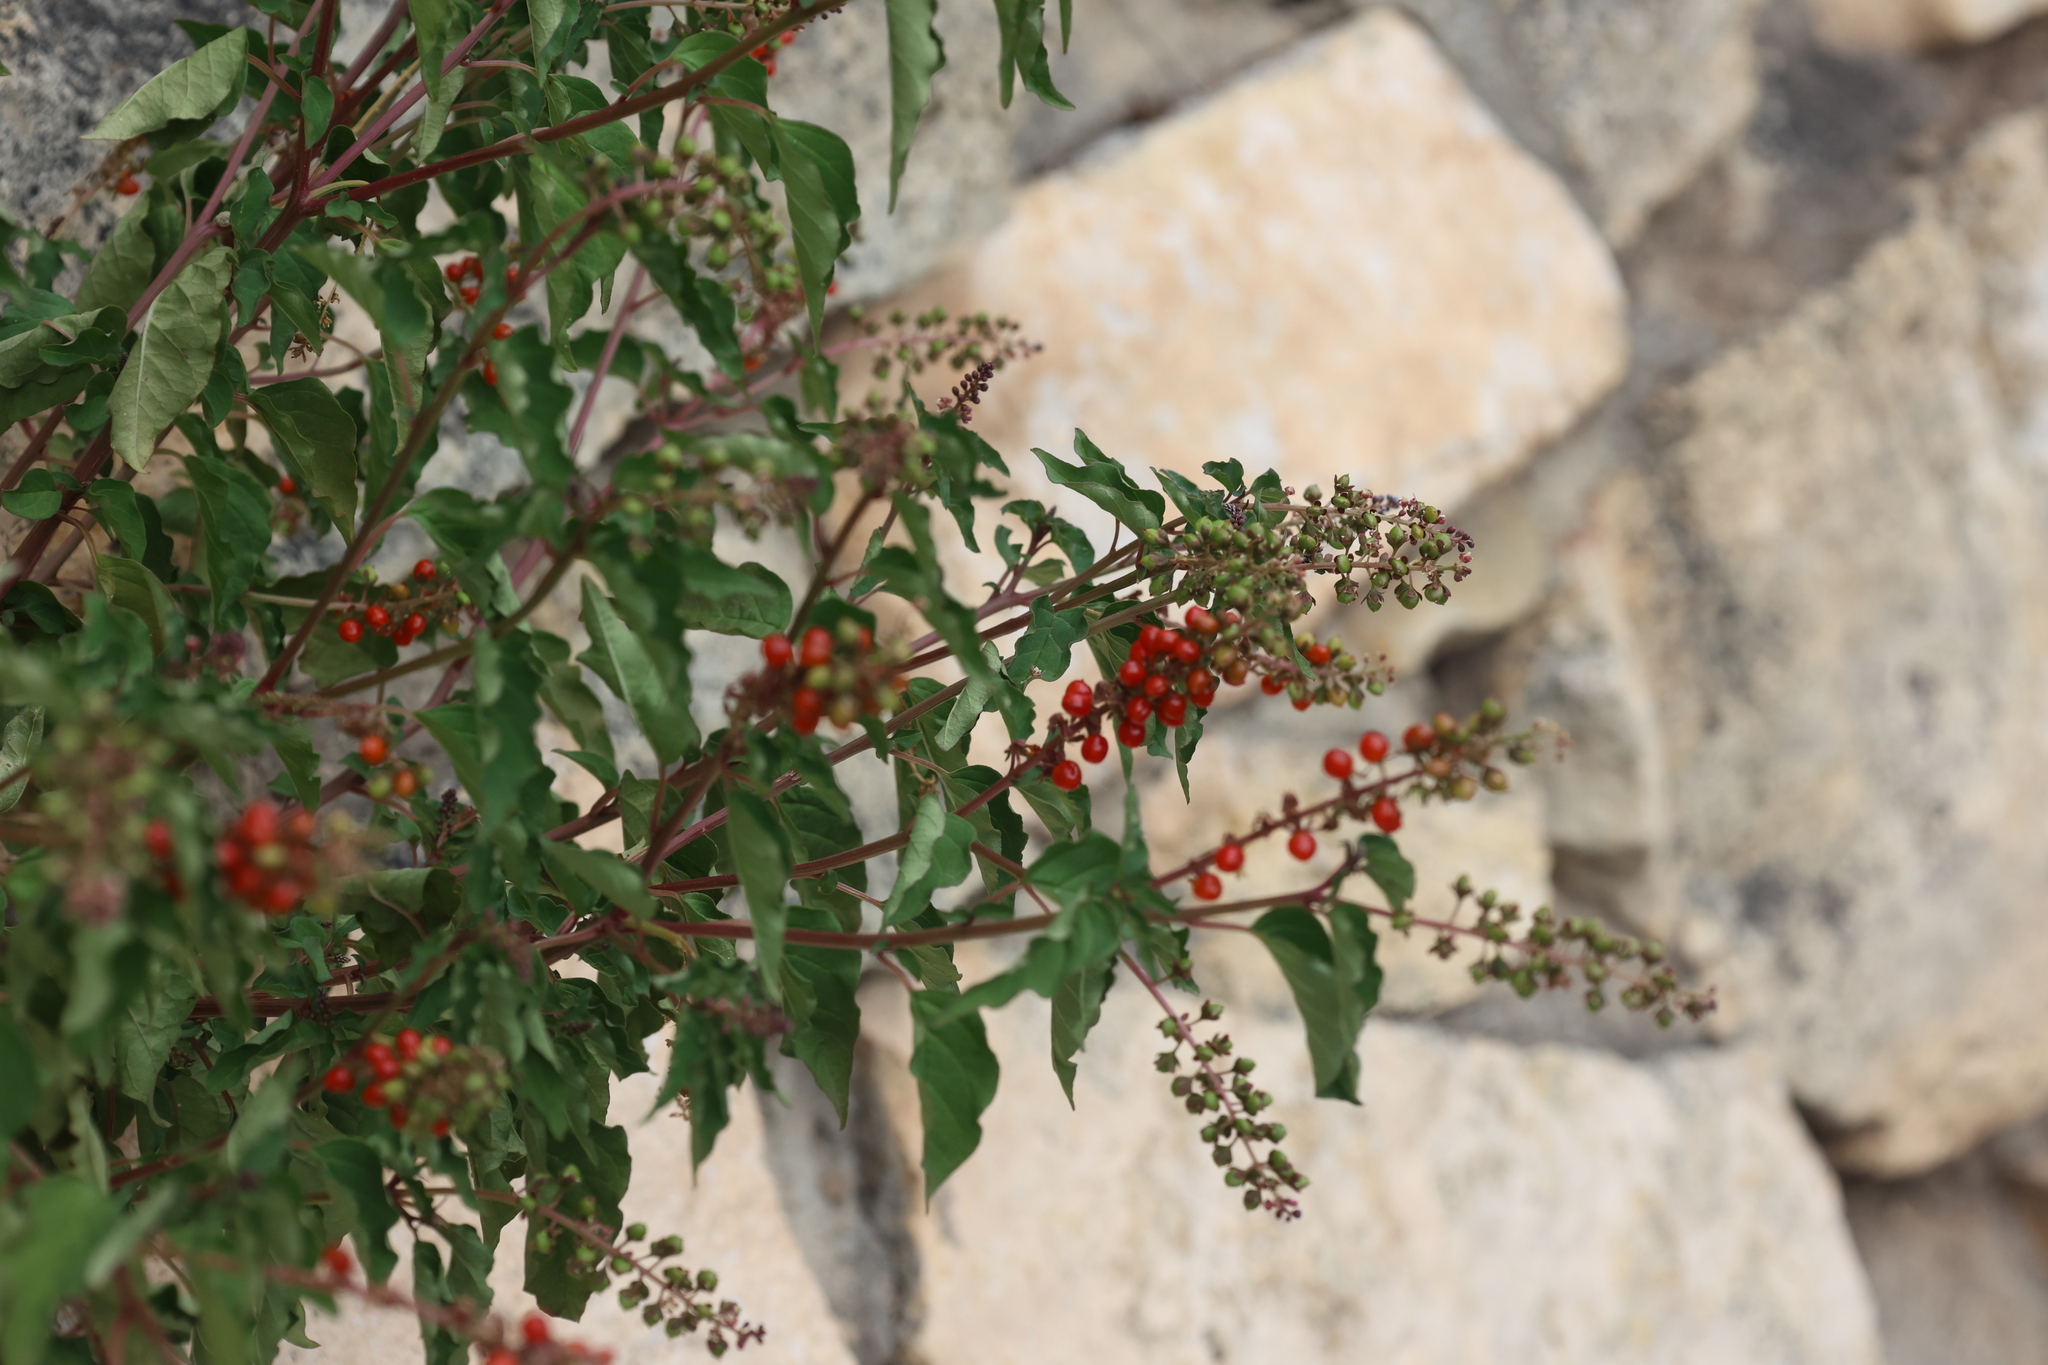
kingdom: Plantae
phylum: Tracheophyta
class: Magnoliopsida
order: Caryophyllales
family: Phytolaccaceae
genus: Rivina
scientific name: Rivina humilis
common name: Rougeplant
